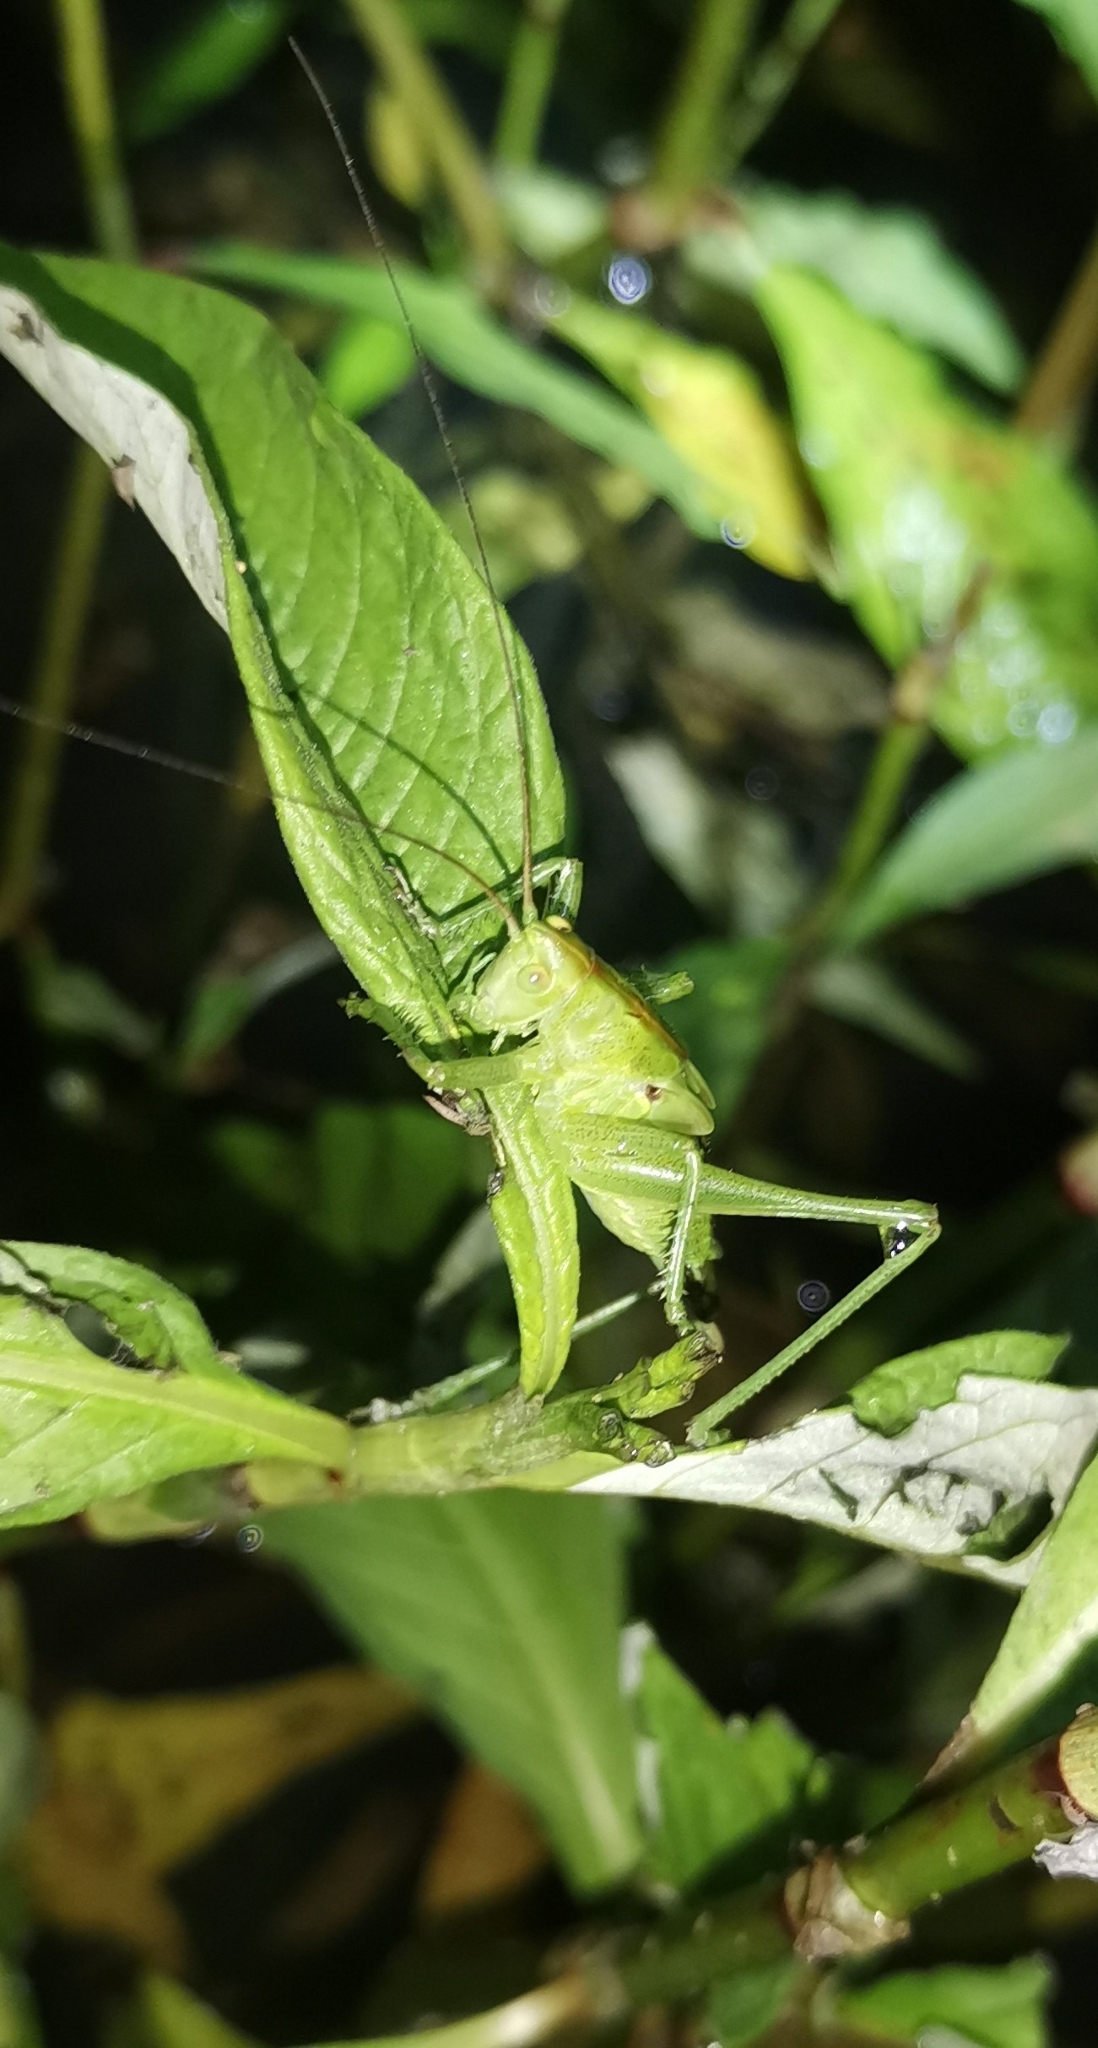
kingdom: Animalia
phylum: Arthropoda
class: Insecta
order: Orthoptera
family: Tettigoniidae
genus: Tettigonia
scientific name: Tettigonia viridissima
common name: Great green bush-cricket
